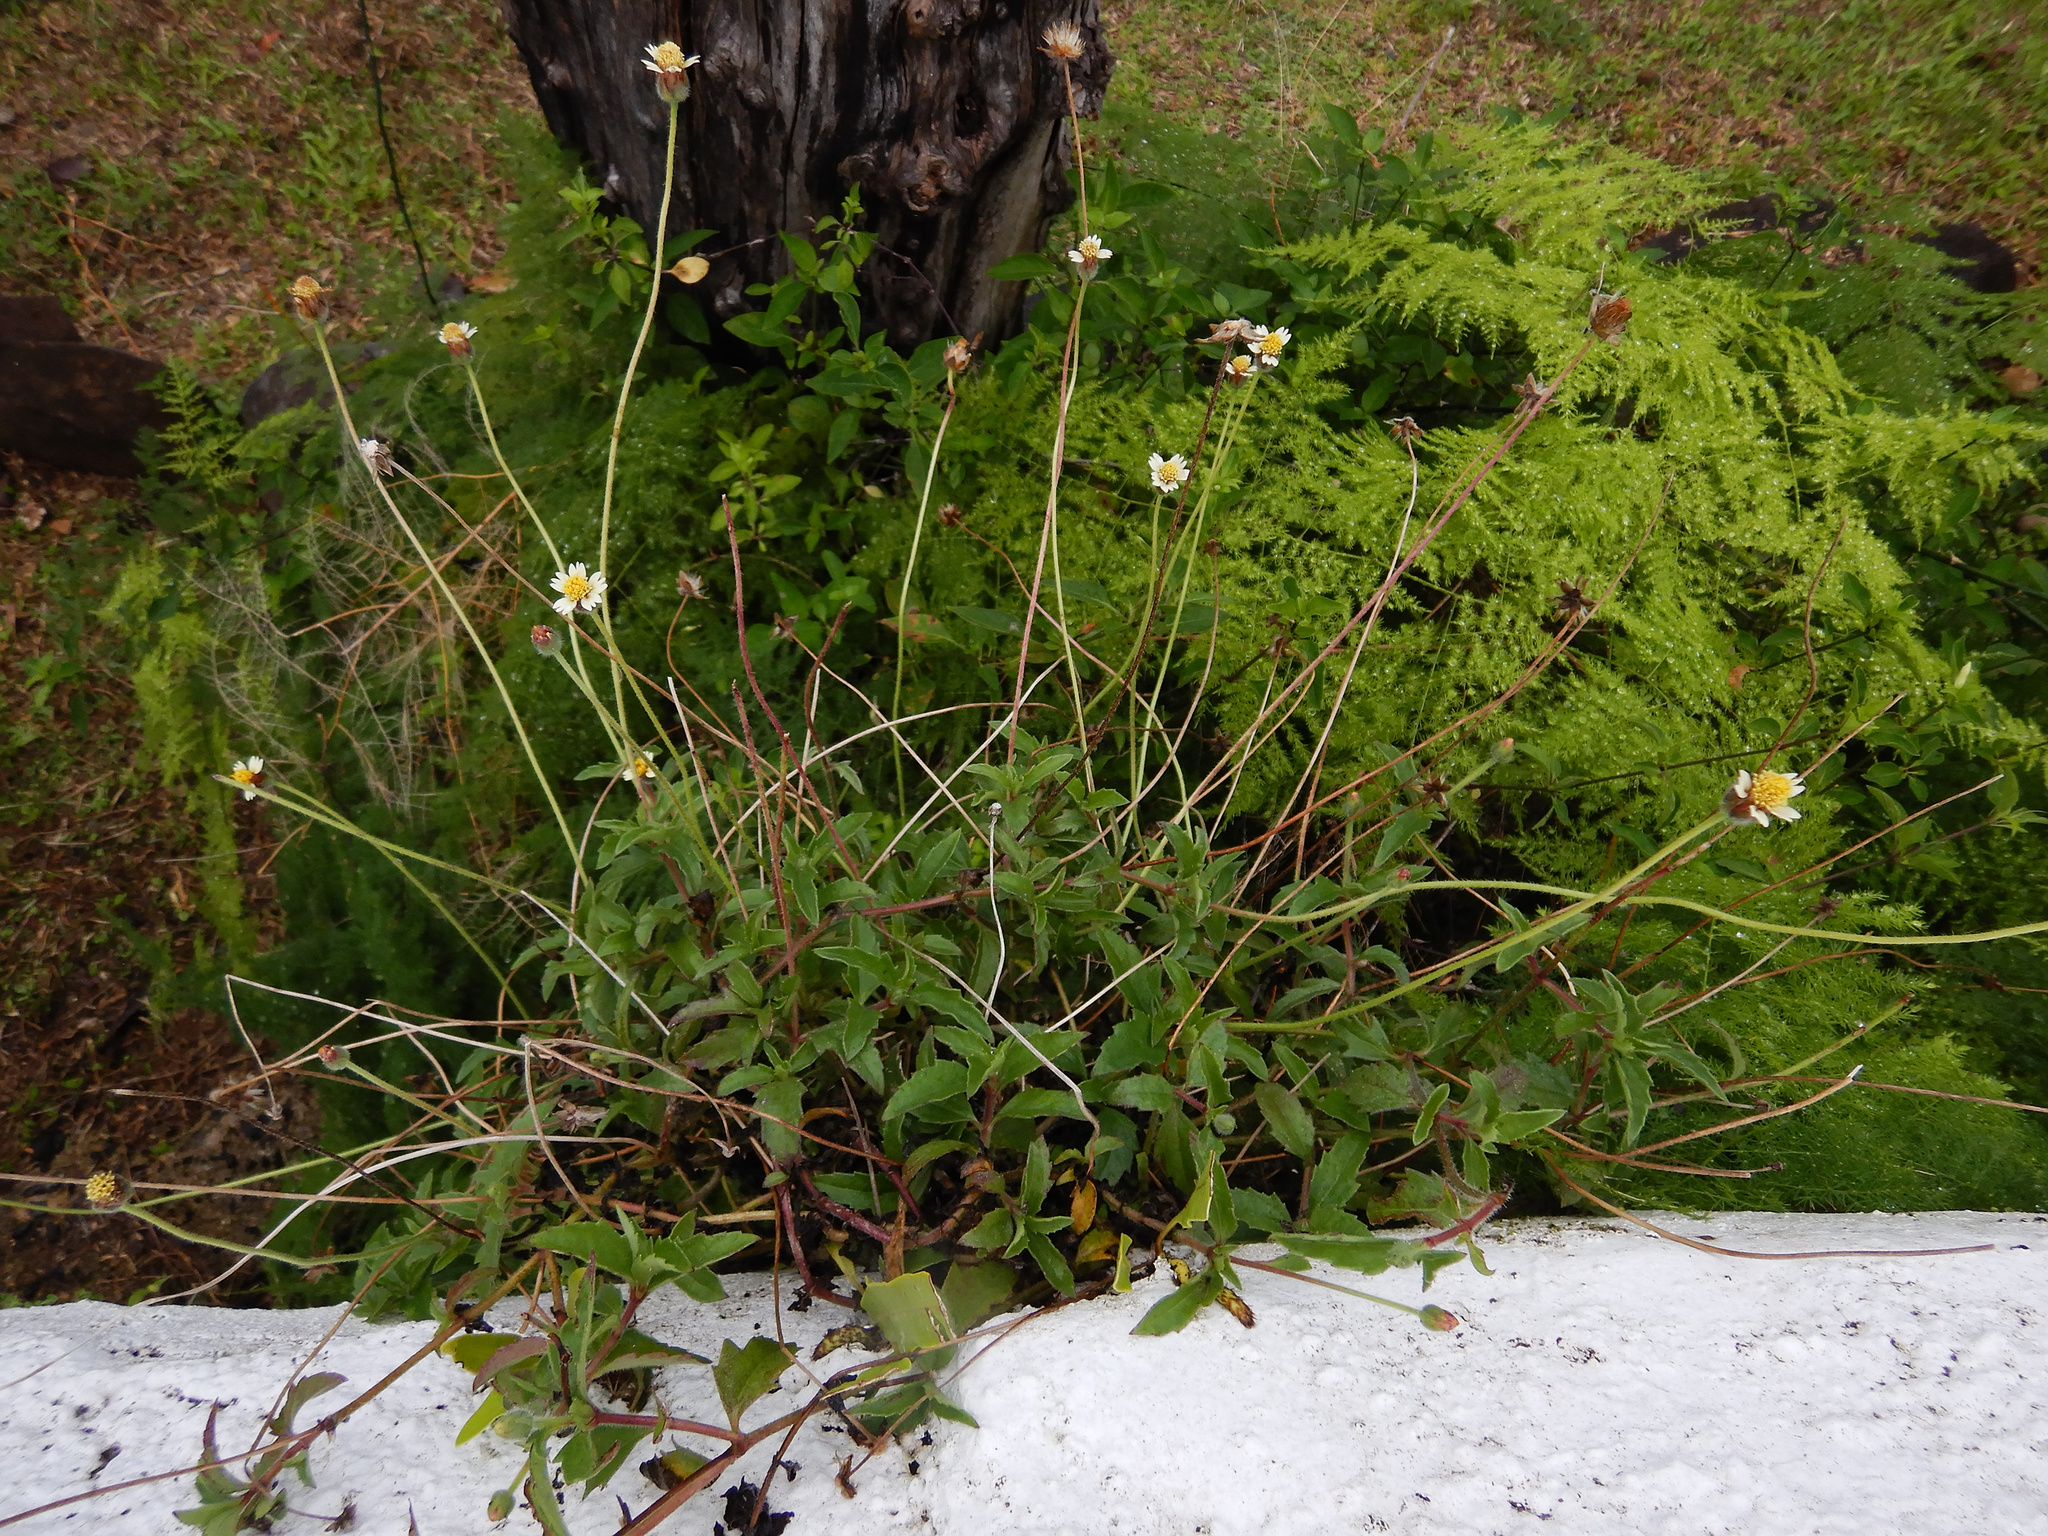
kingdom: Plantae
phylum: Tracheophyta
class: Magnoliopsida
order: Asterales
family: Asteraceae
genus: Tridax
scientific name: Tridax procumbens
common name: Coatbuttons
